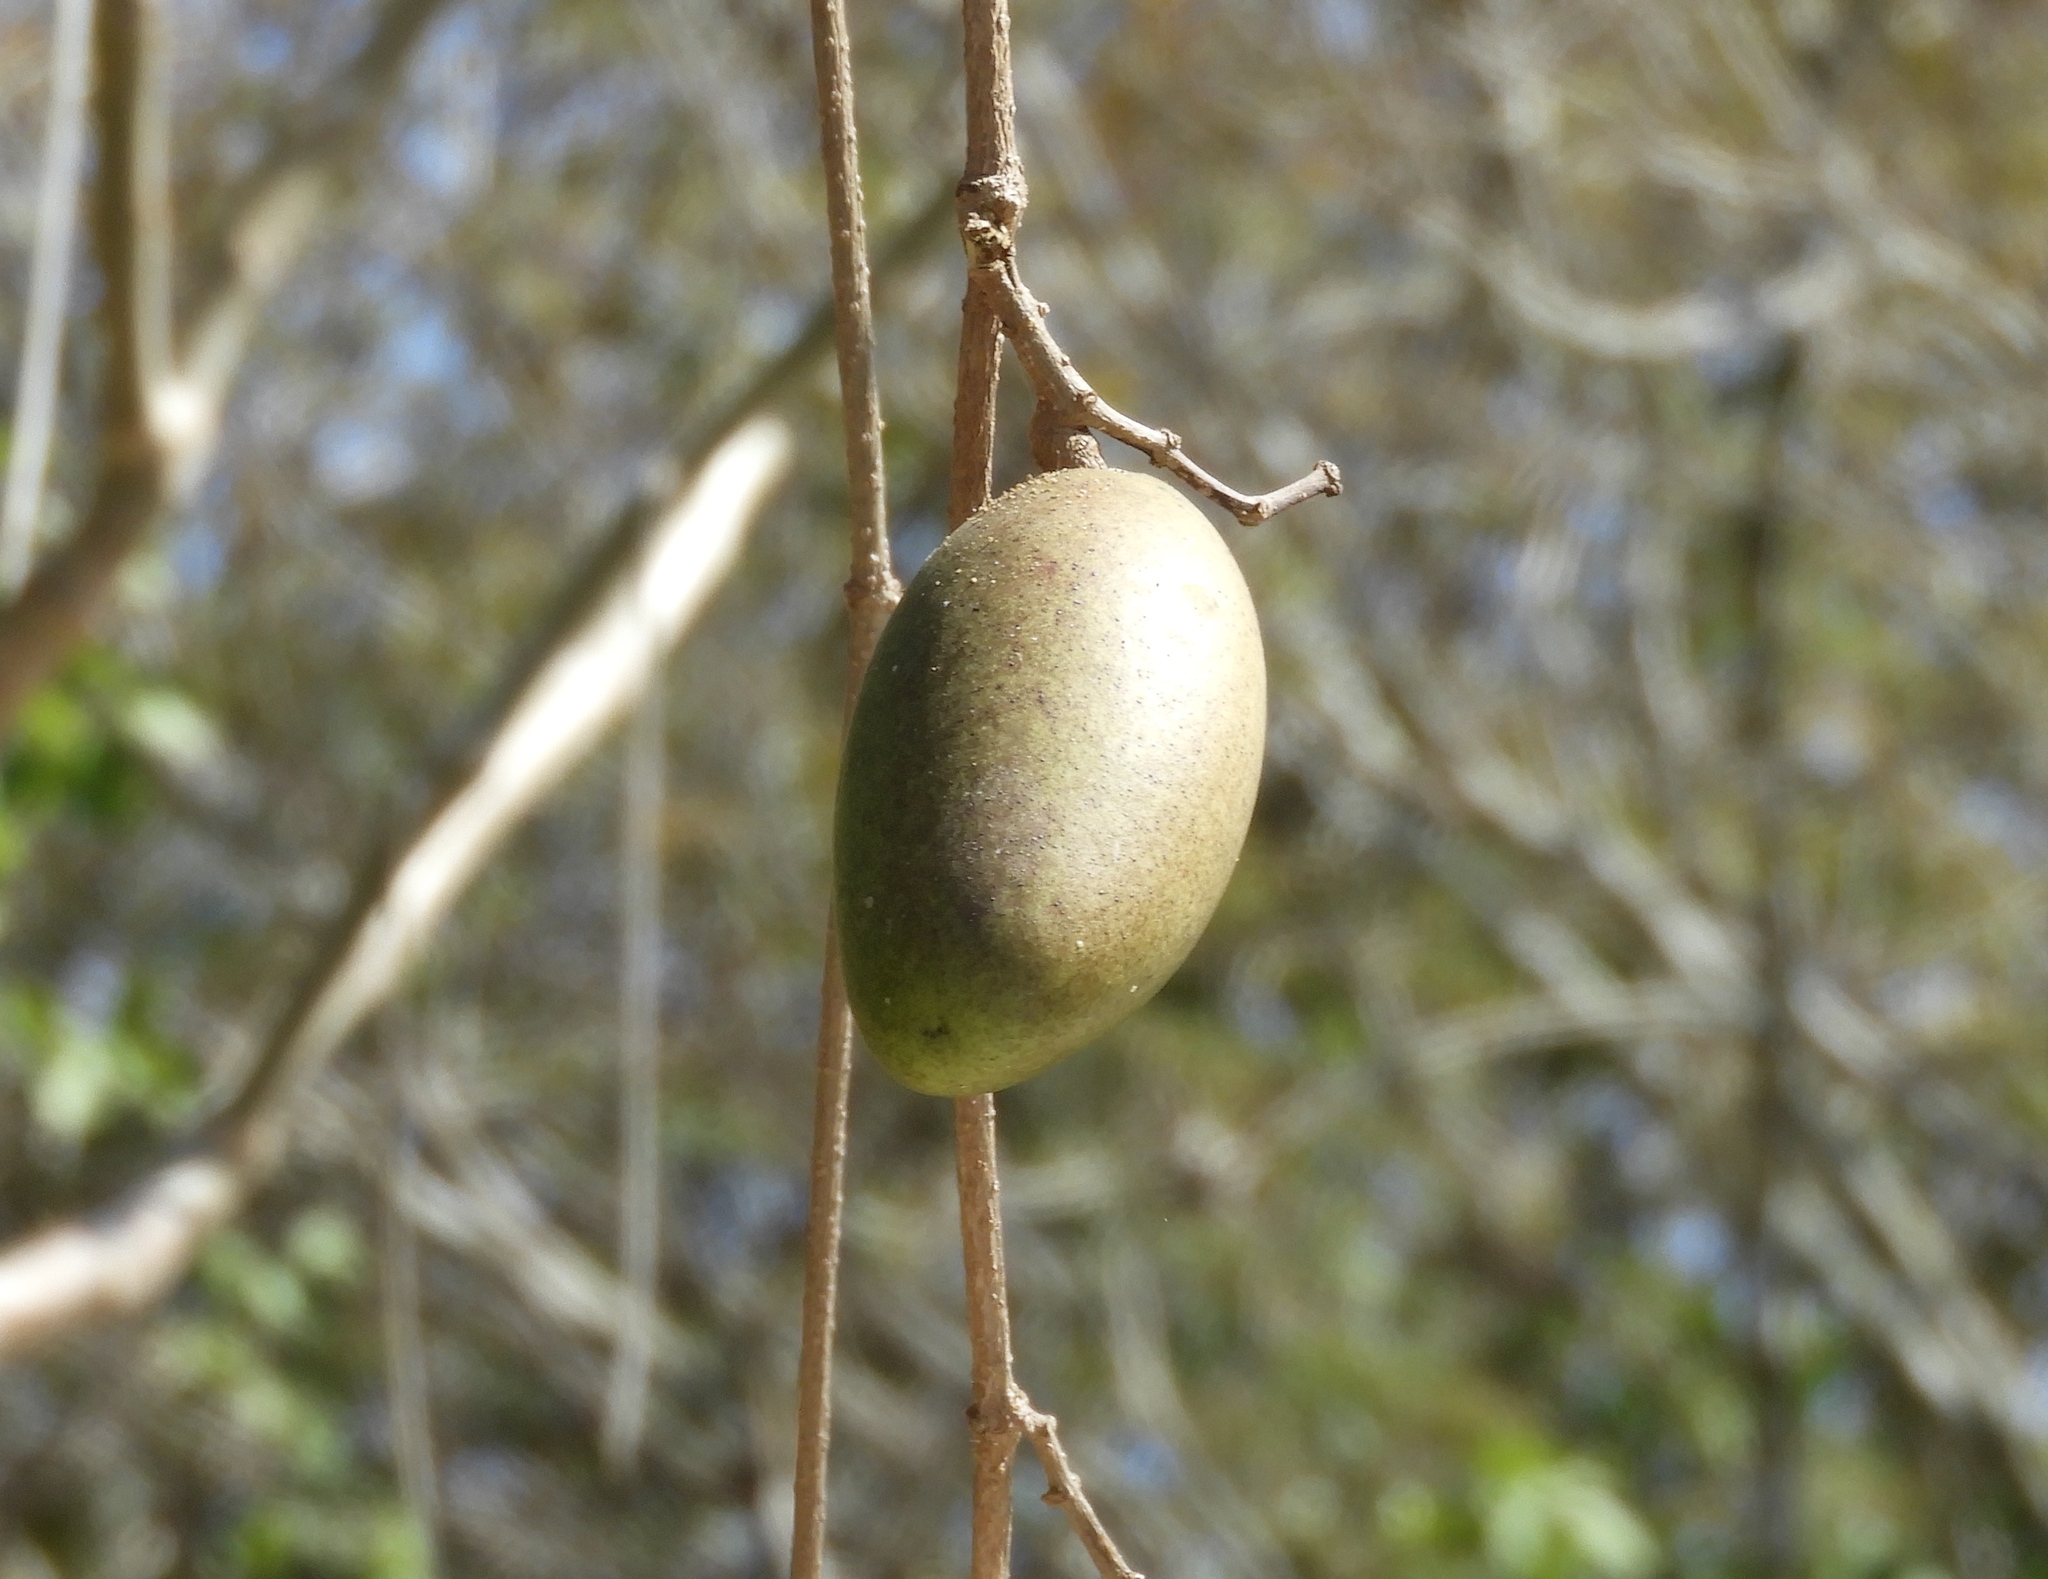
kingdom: Plantae
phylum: Tracheophyta
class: Magnoliopsida
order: Gentianales
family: Apocynaceae
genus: Ruehssia
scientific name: Ruehssia edulis
